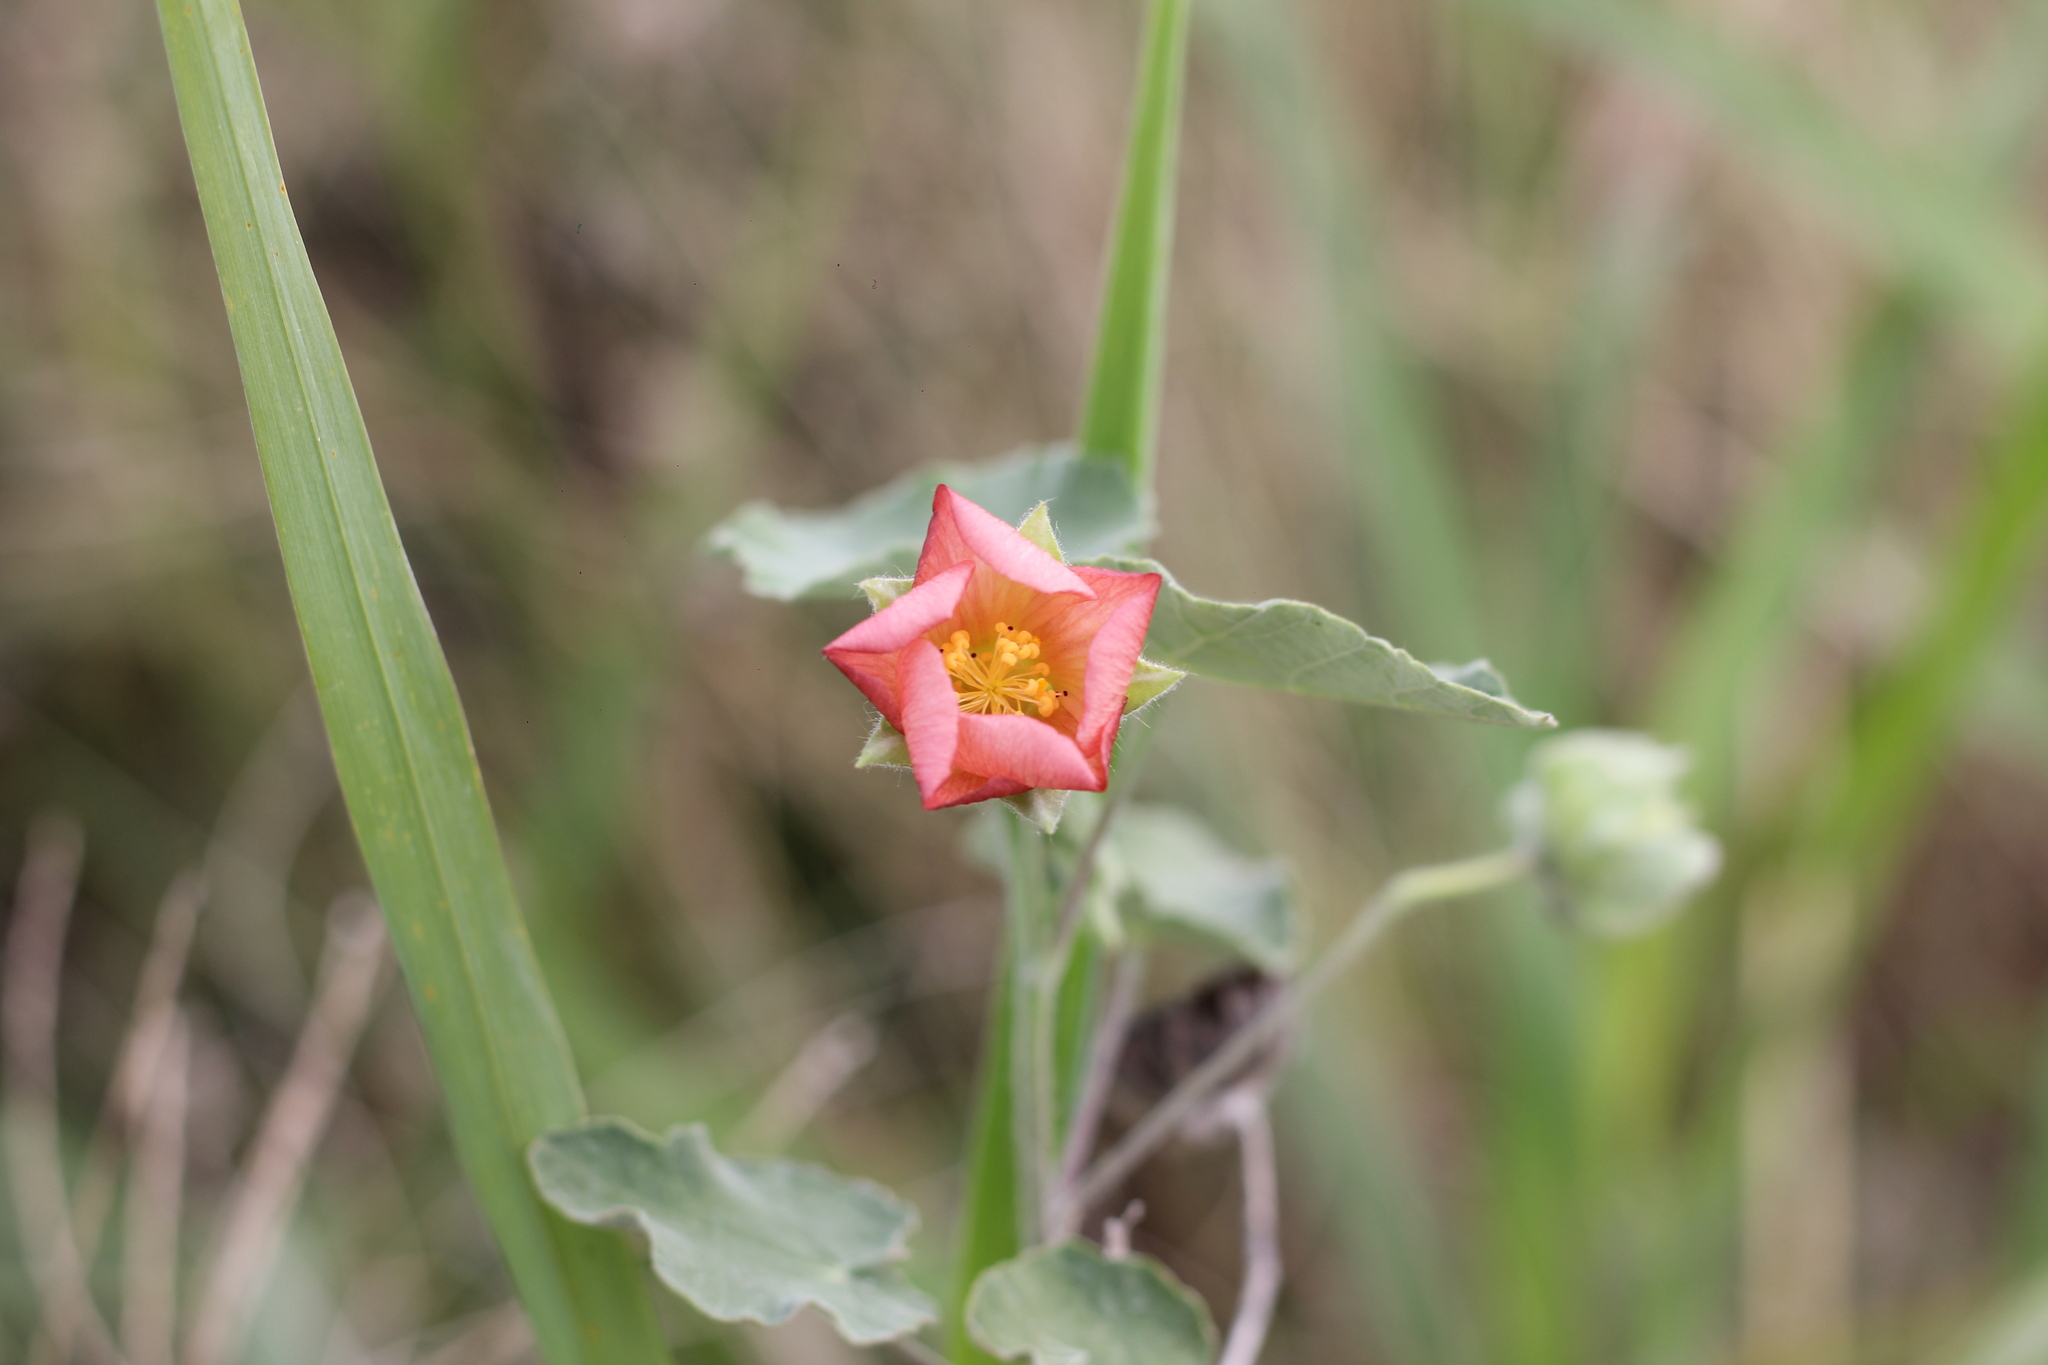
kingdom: Plantae
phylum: Tracheophyta
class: Magnoliopsida
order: Malvales
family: Malvaceae
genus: Callianthe
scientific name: Callianthe pauciflora
